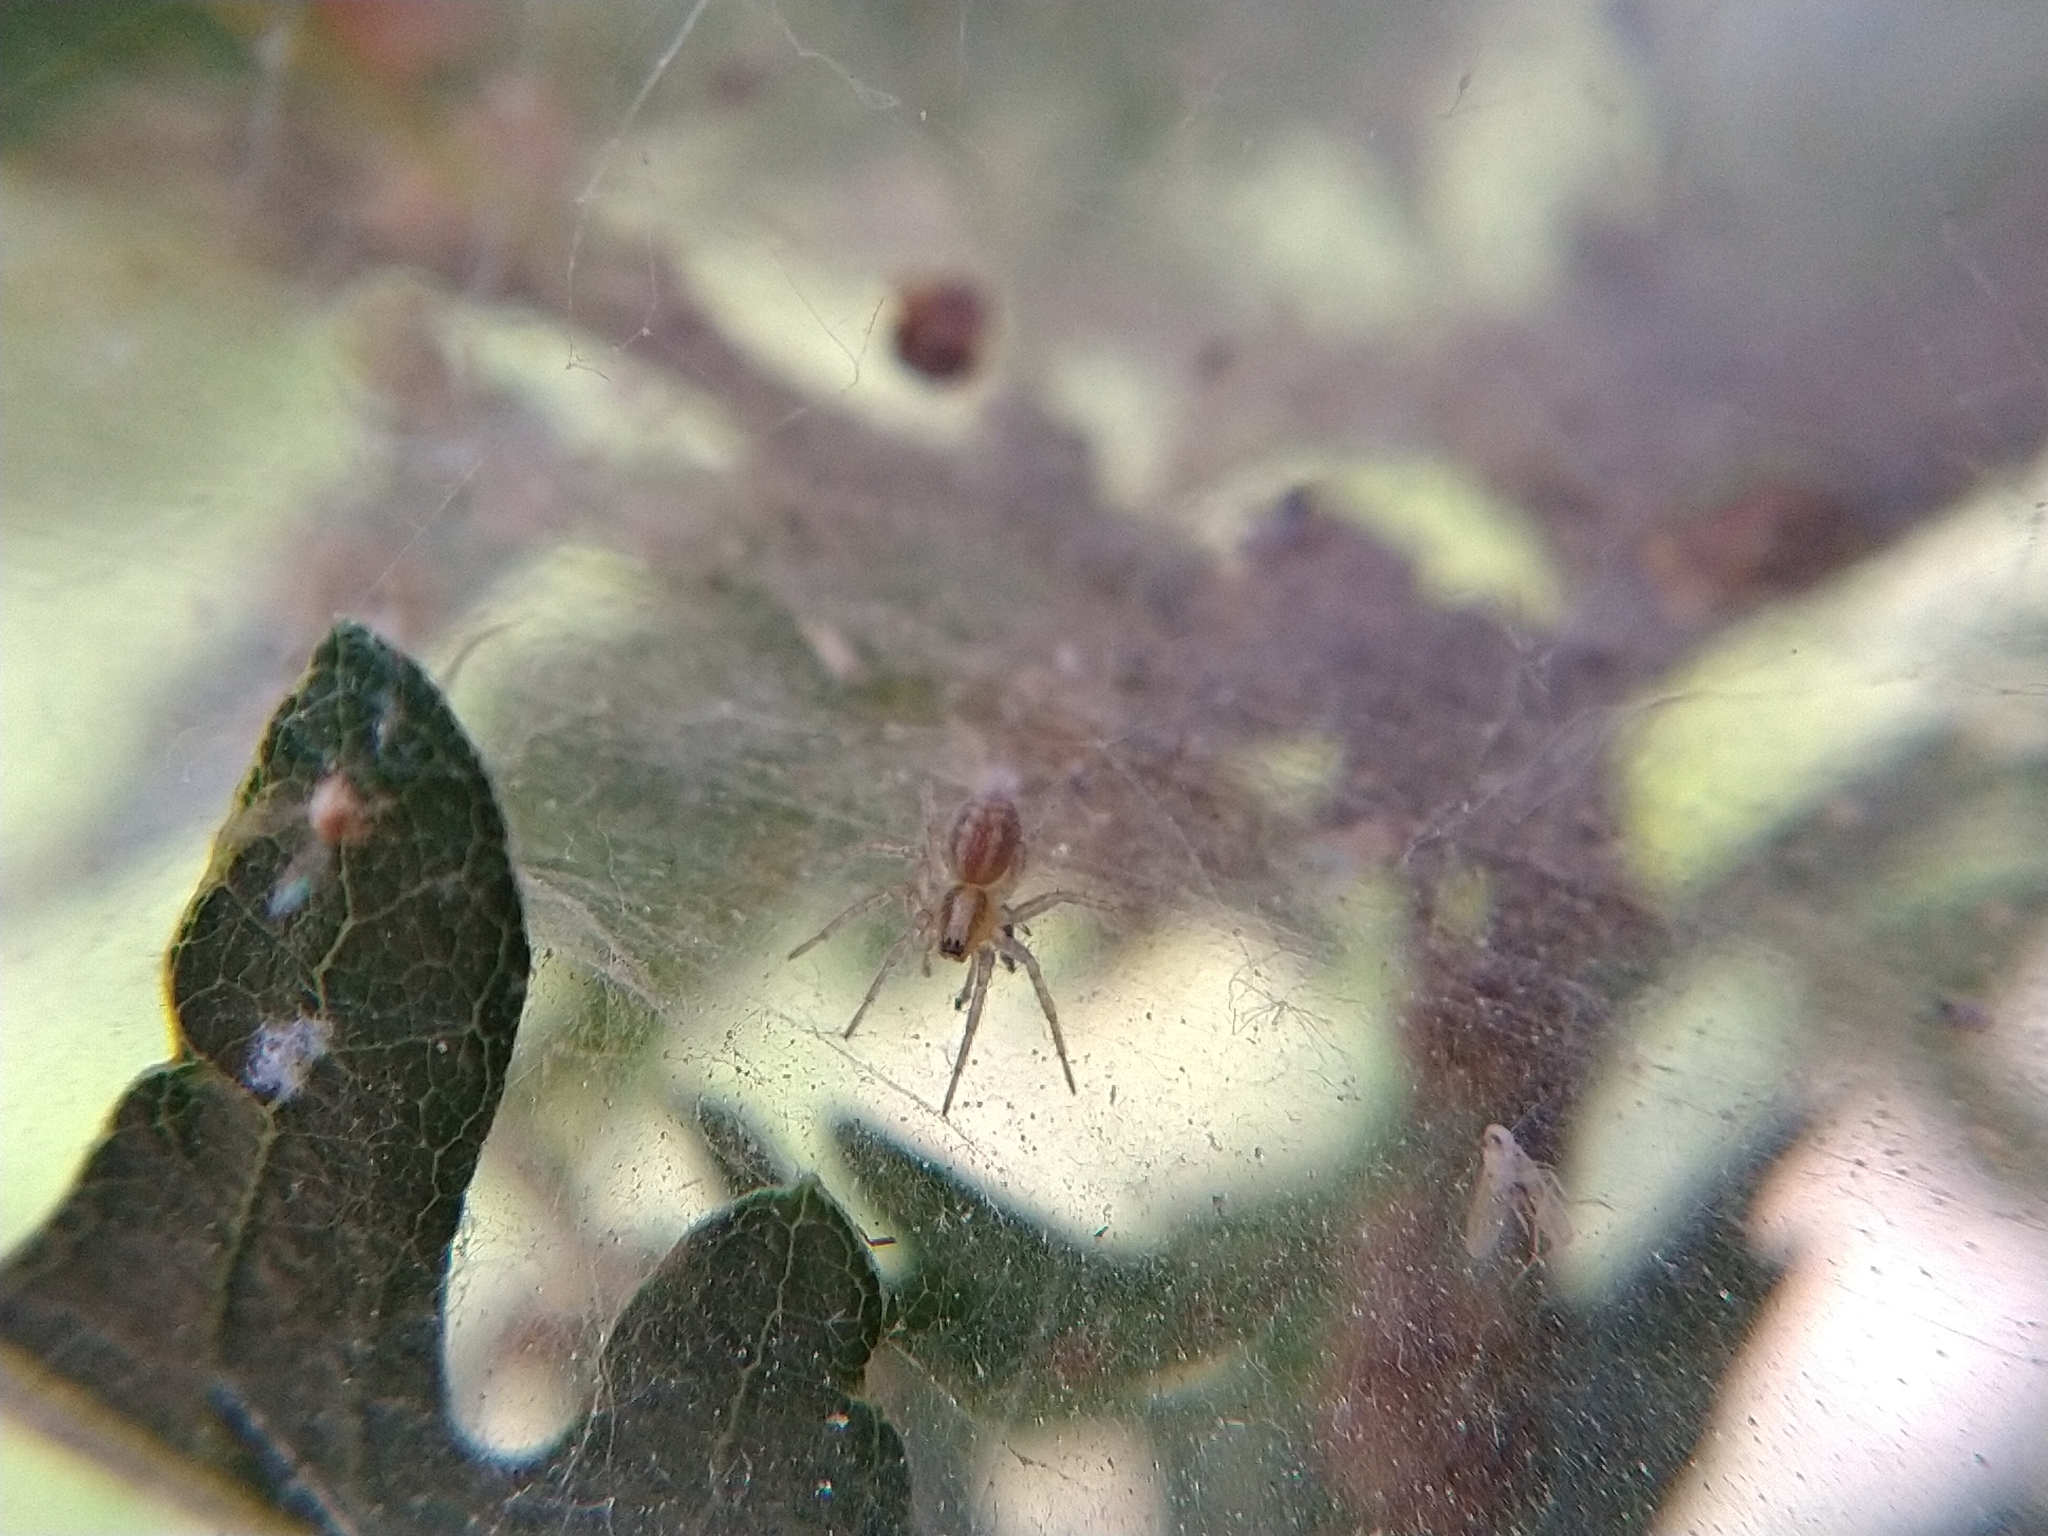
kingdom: Animalia
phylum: Arthropoda
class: Arachnida
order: Araneae
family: Agelenidae
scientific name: Agelenidae
